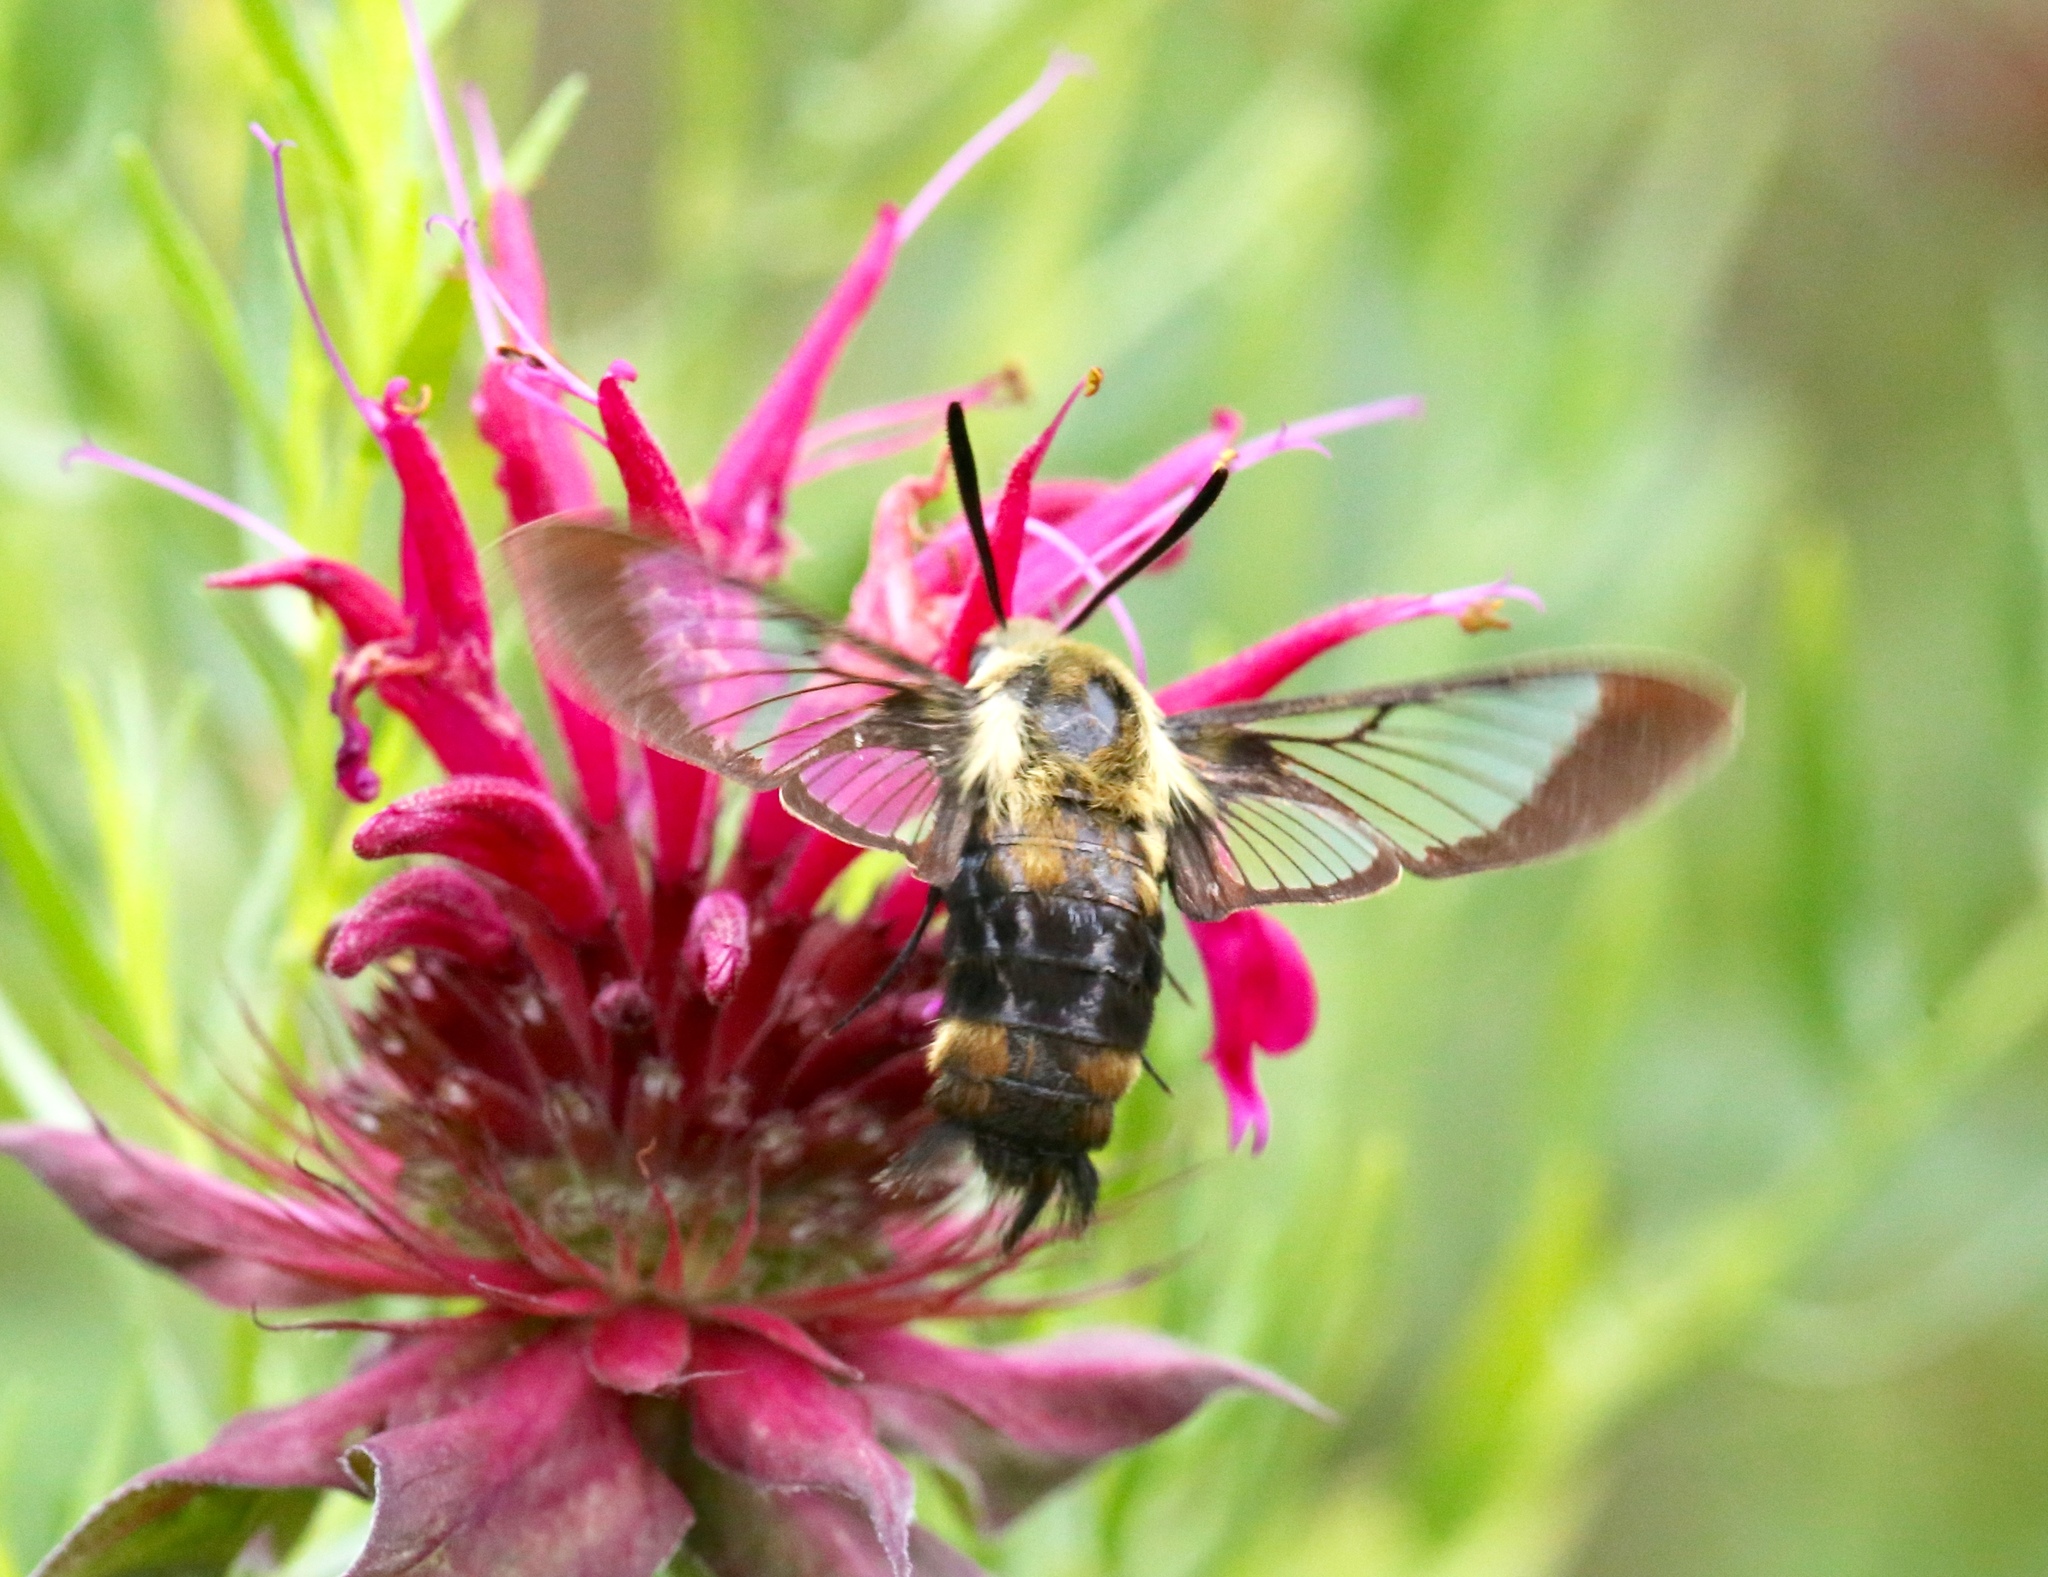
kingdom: Animalia
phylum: Arthropoda
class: Insecta
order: Lepidoptera
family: Sphingidae
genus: Hemaris
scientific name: Hemaris diffinis
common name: Bumblebee moth
